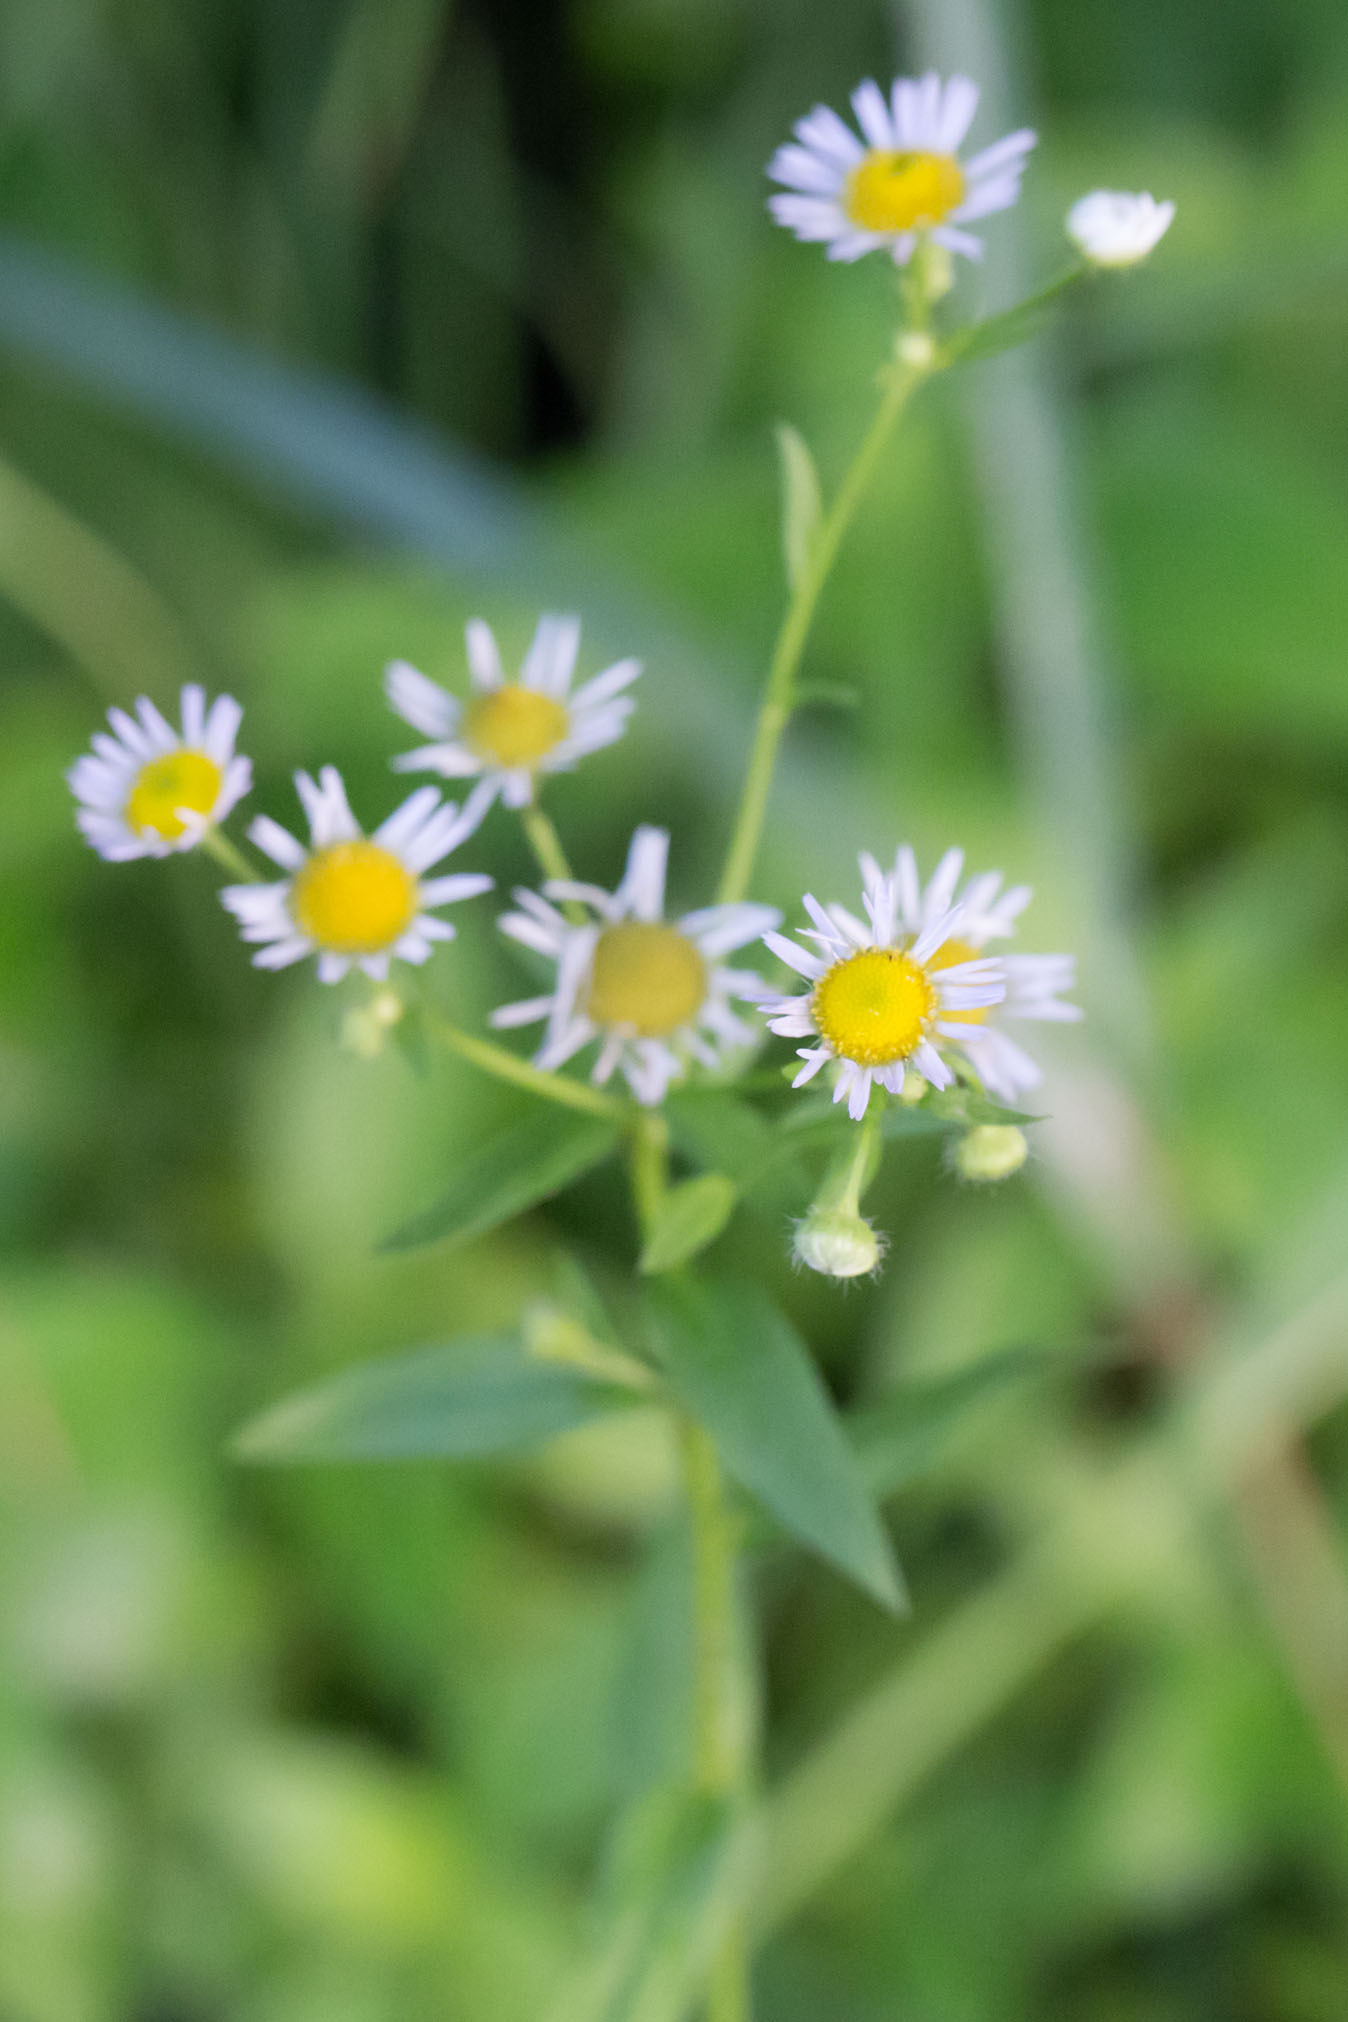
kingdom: Plantae
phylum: Tracheophyta
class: Magnoliopsida
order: Asterales
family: Asteraceae
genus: Erigeron
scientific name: Erigeron annuus
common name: Tall fleabane
